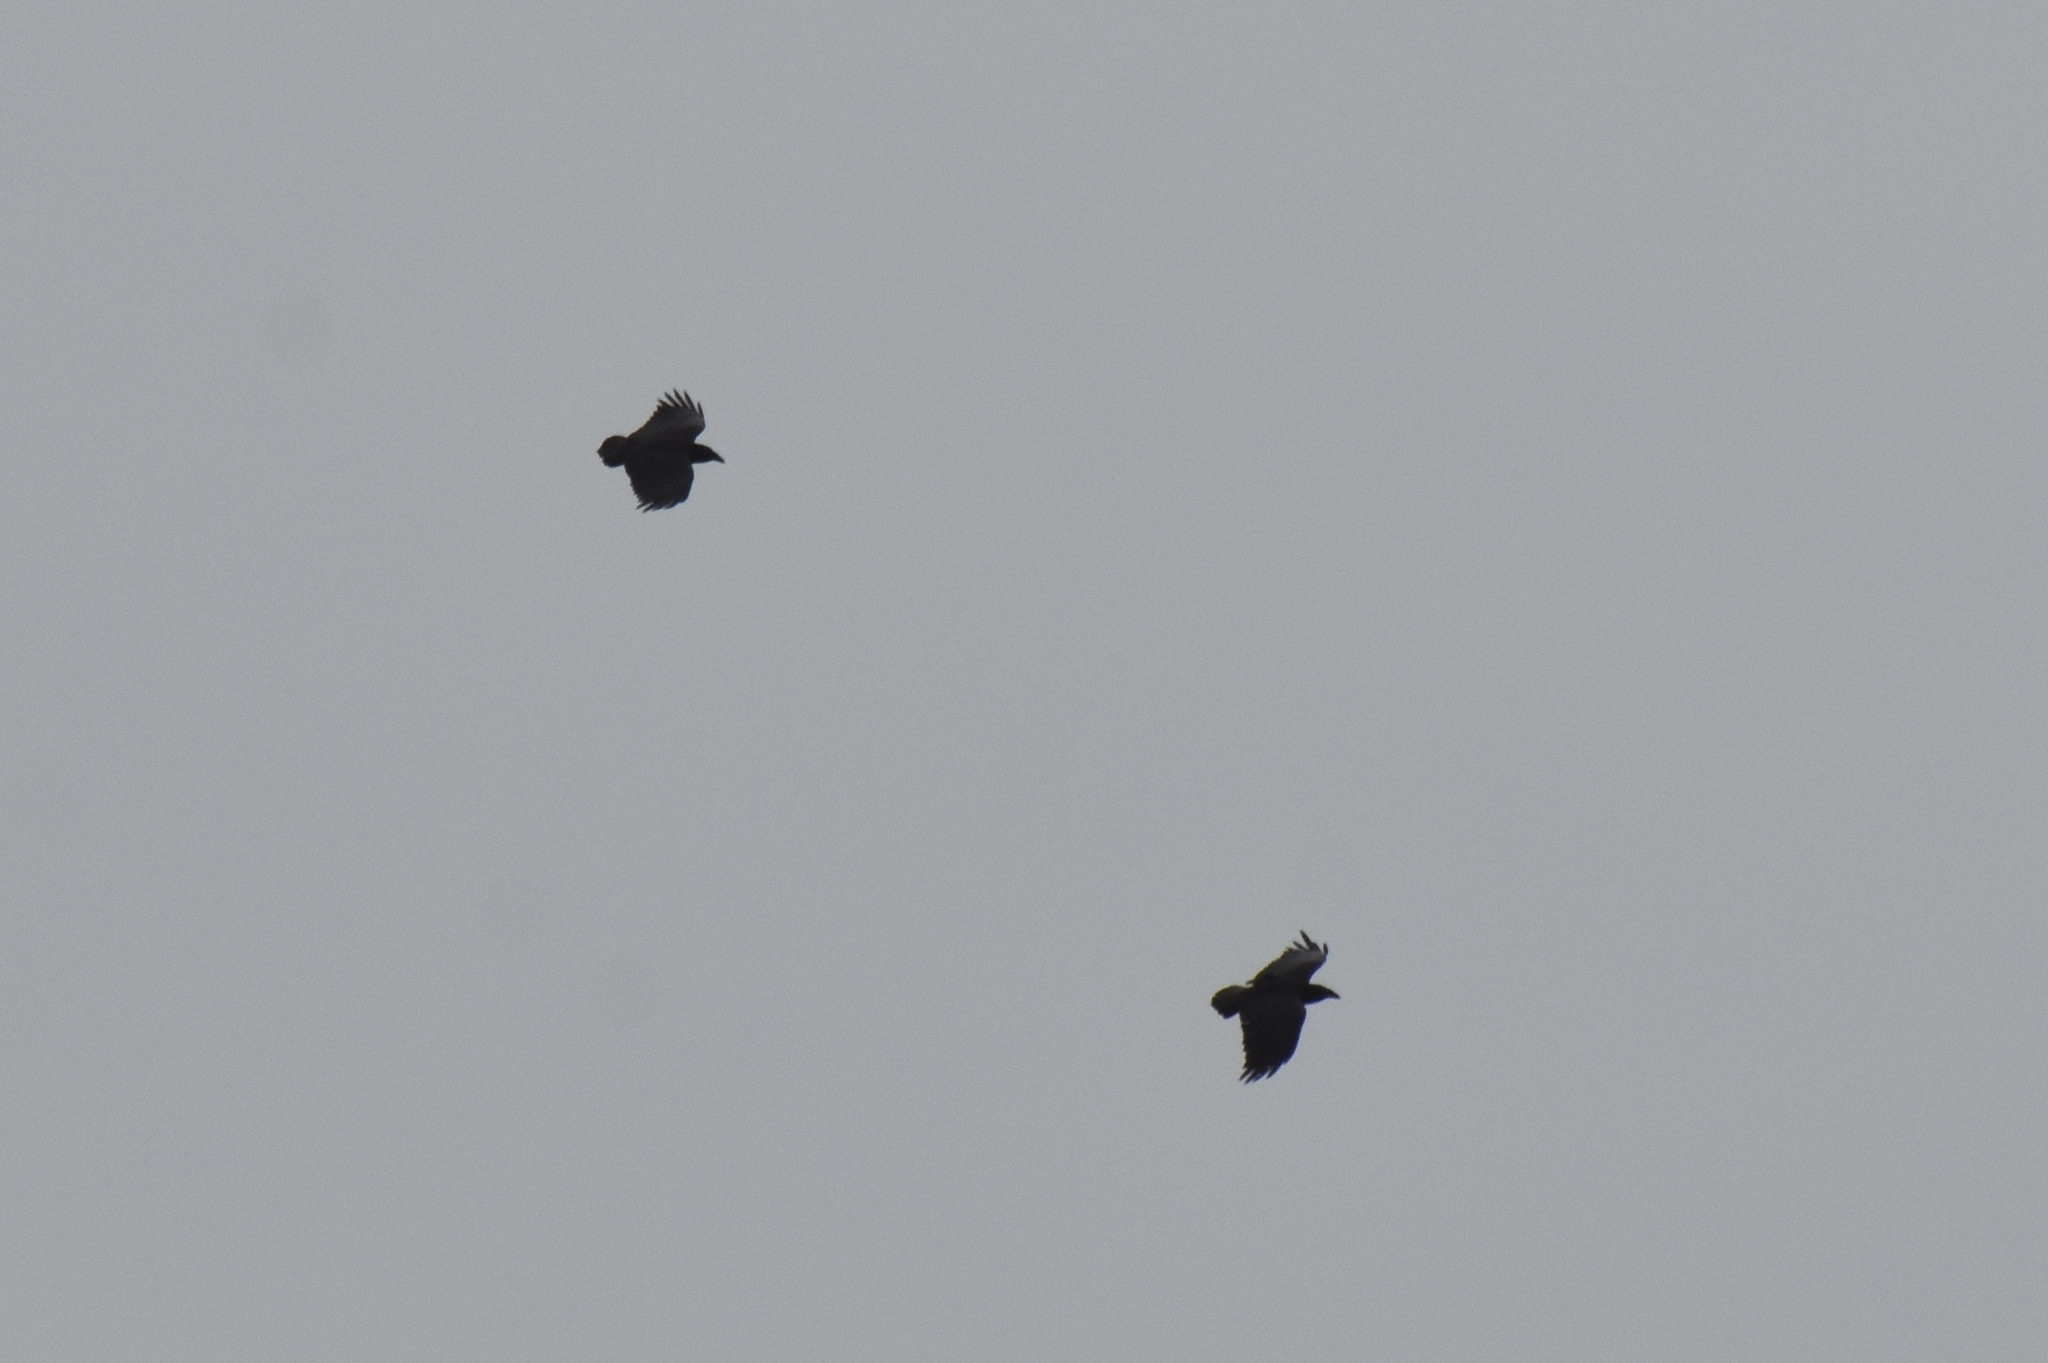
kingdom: Animalia
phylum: Chordata
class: Aves
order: Passeriformes
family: Corvidae
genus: Corvus
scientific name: Corvus rhipidurus
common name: Fan-tailed raven
